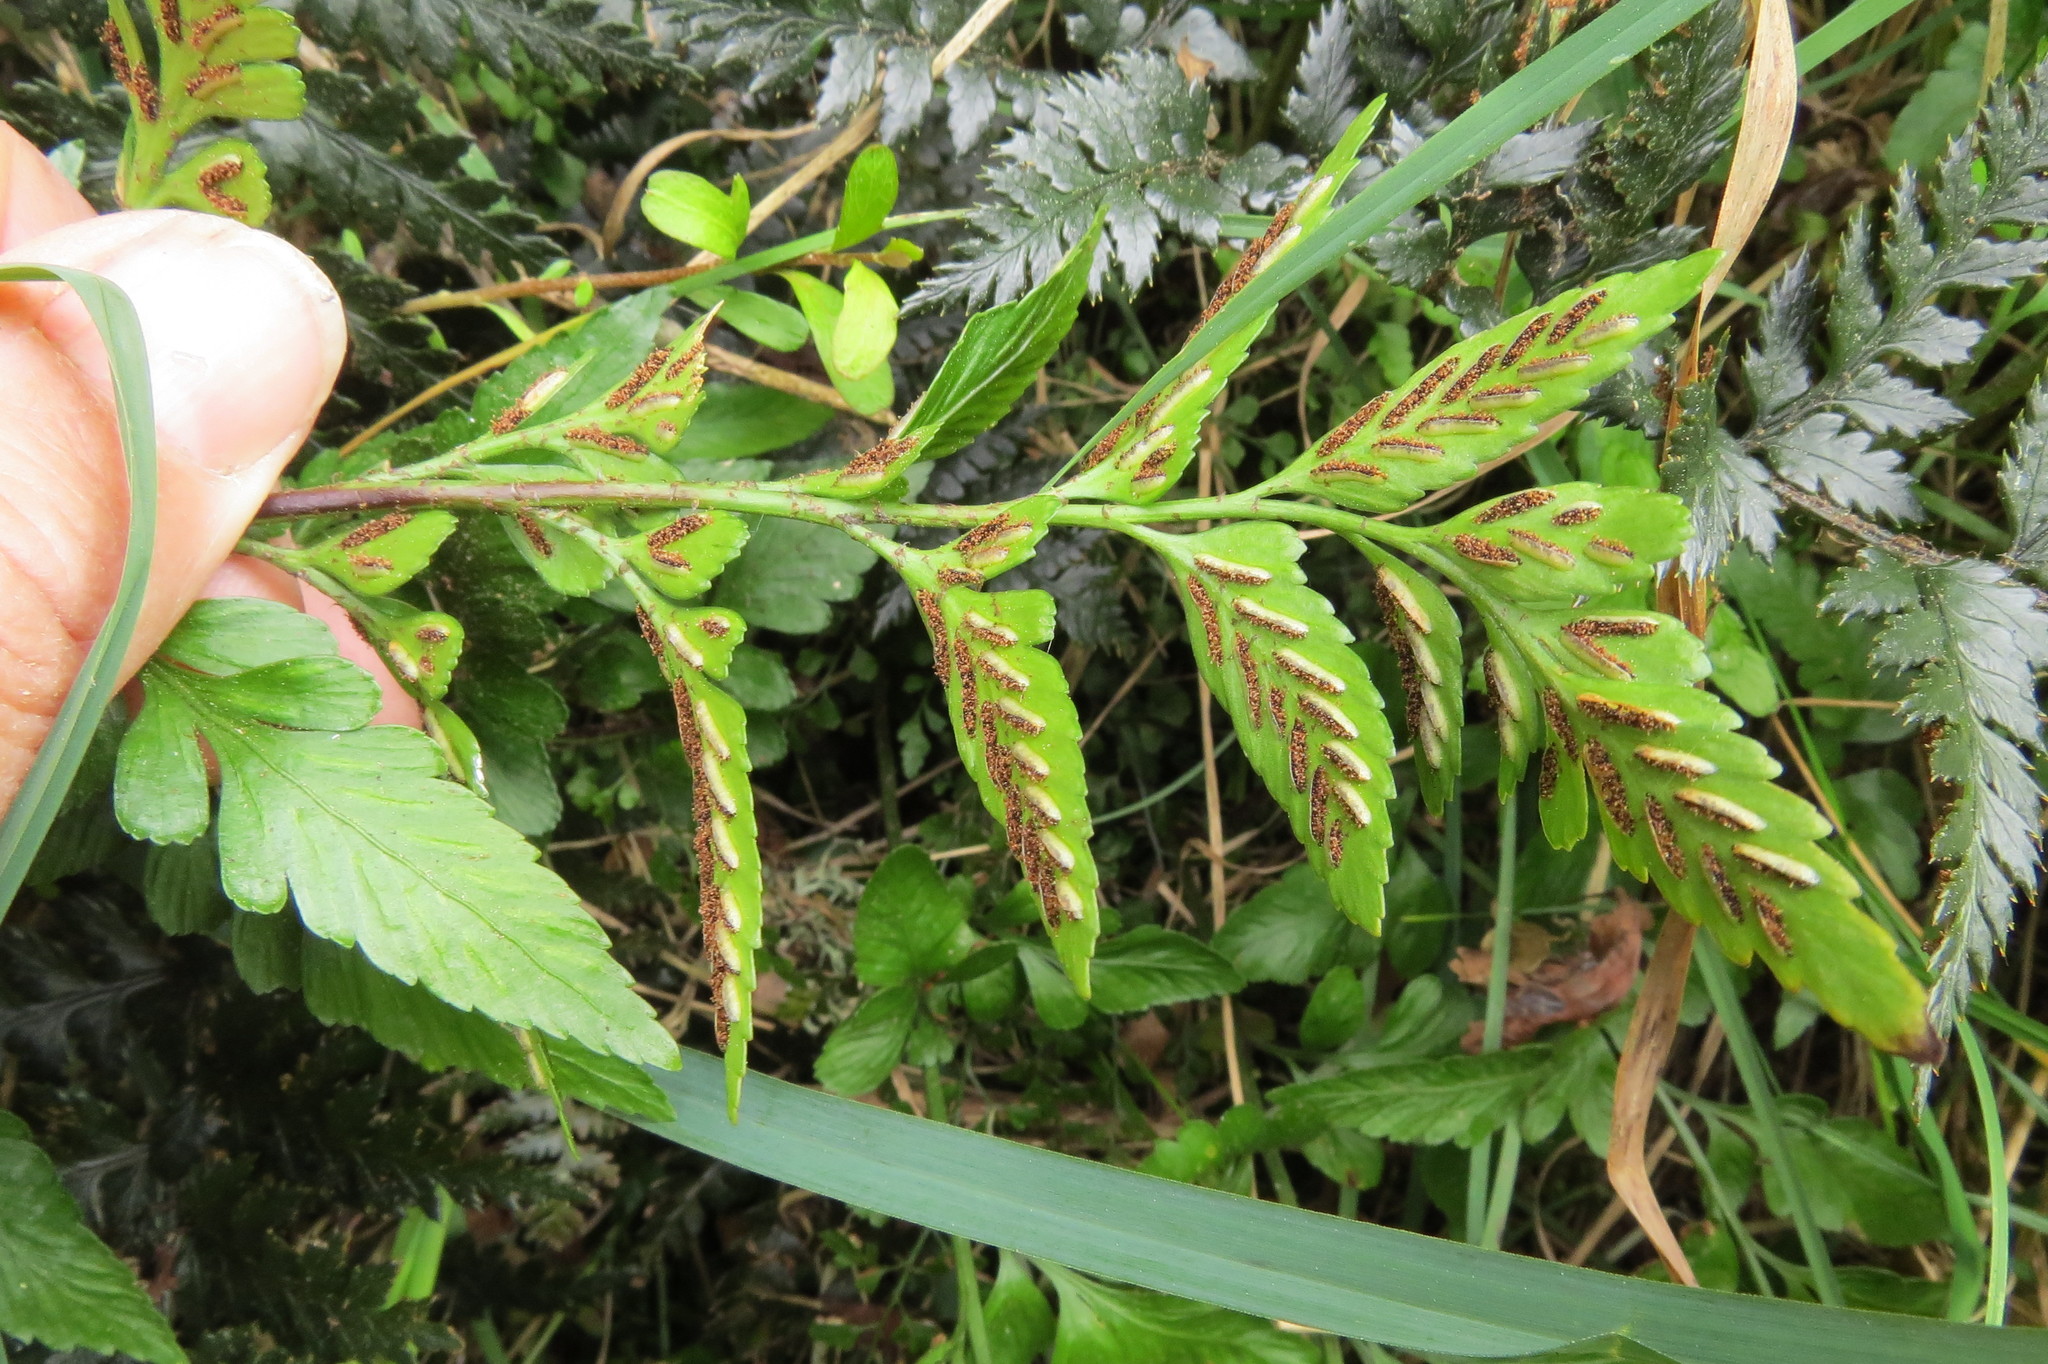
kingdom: Plantae
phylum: Tracheophyta
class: Polypodiopsida
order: Polypodiales
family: Aspleniaceae
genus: Asplenium
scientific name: Asplenium lyallii
